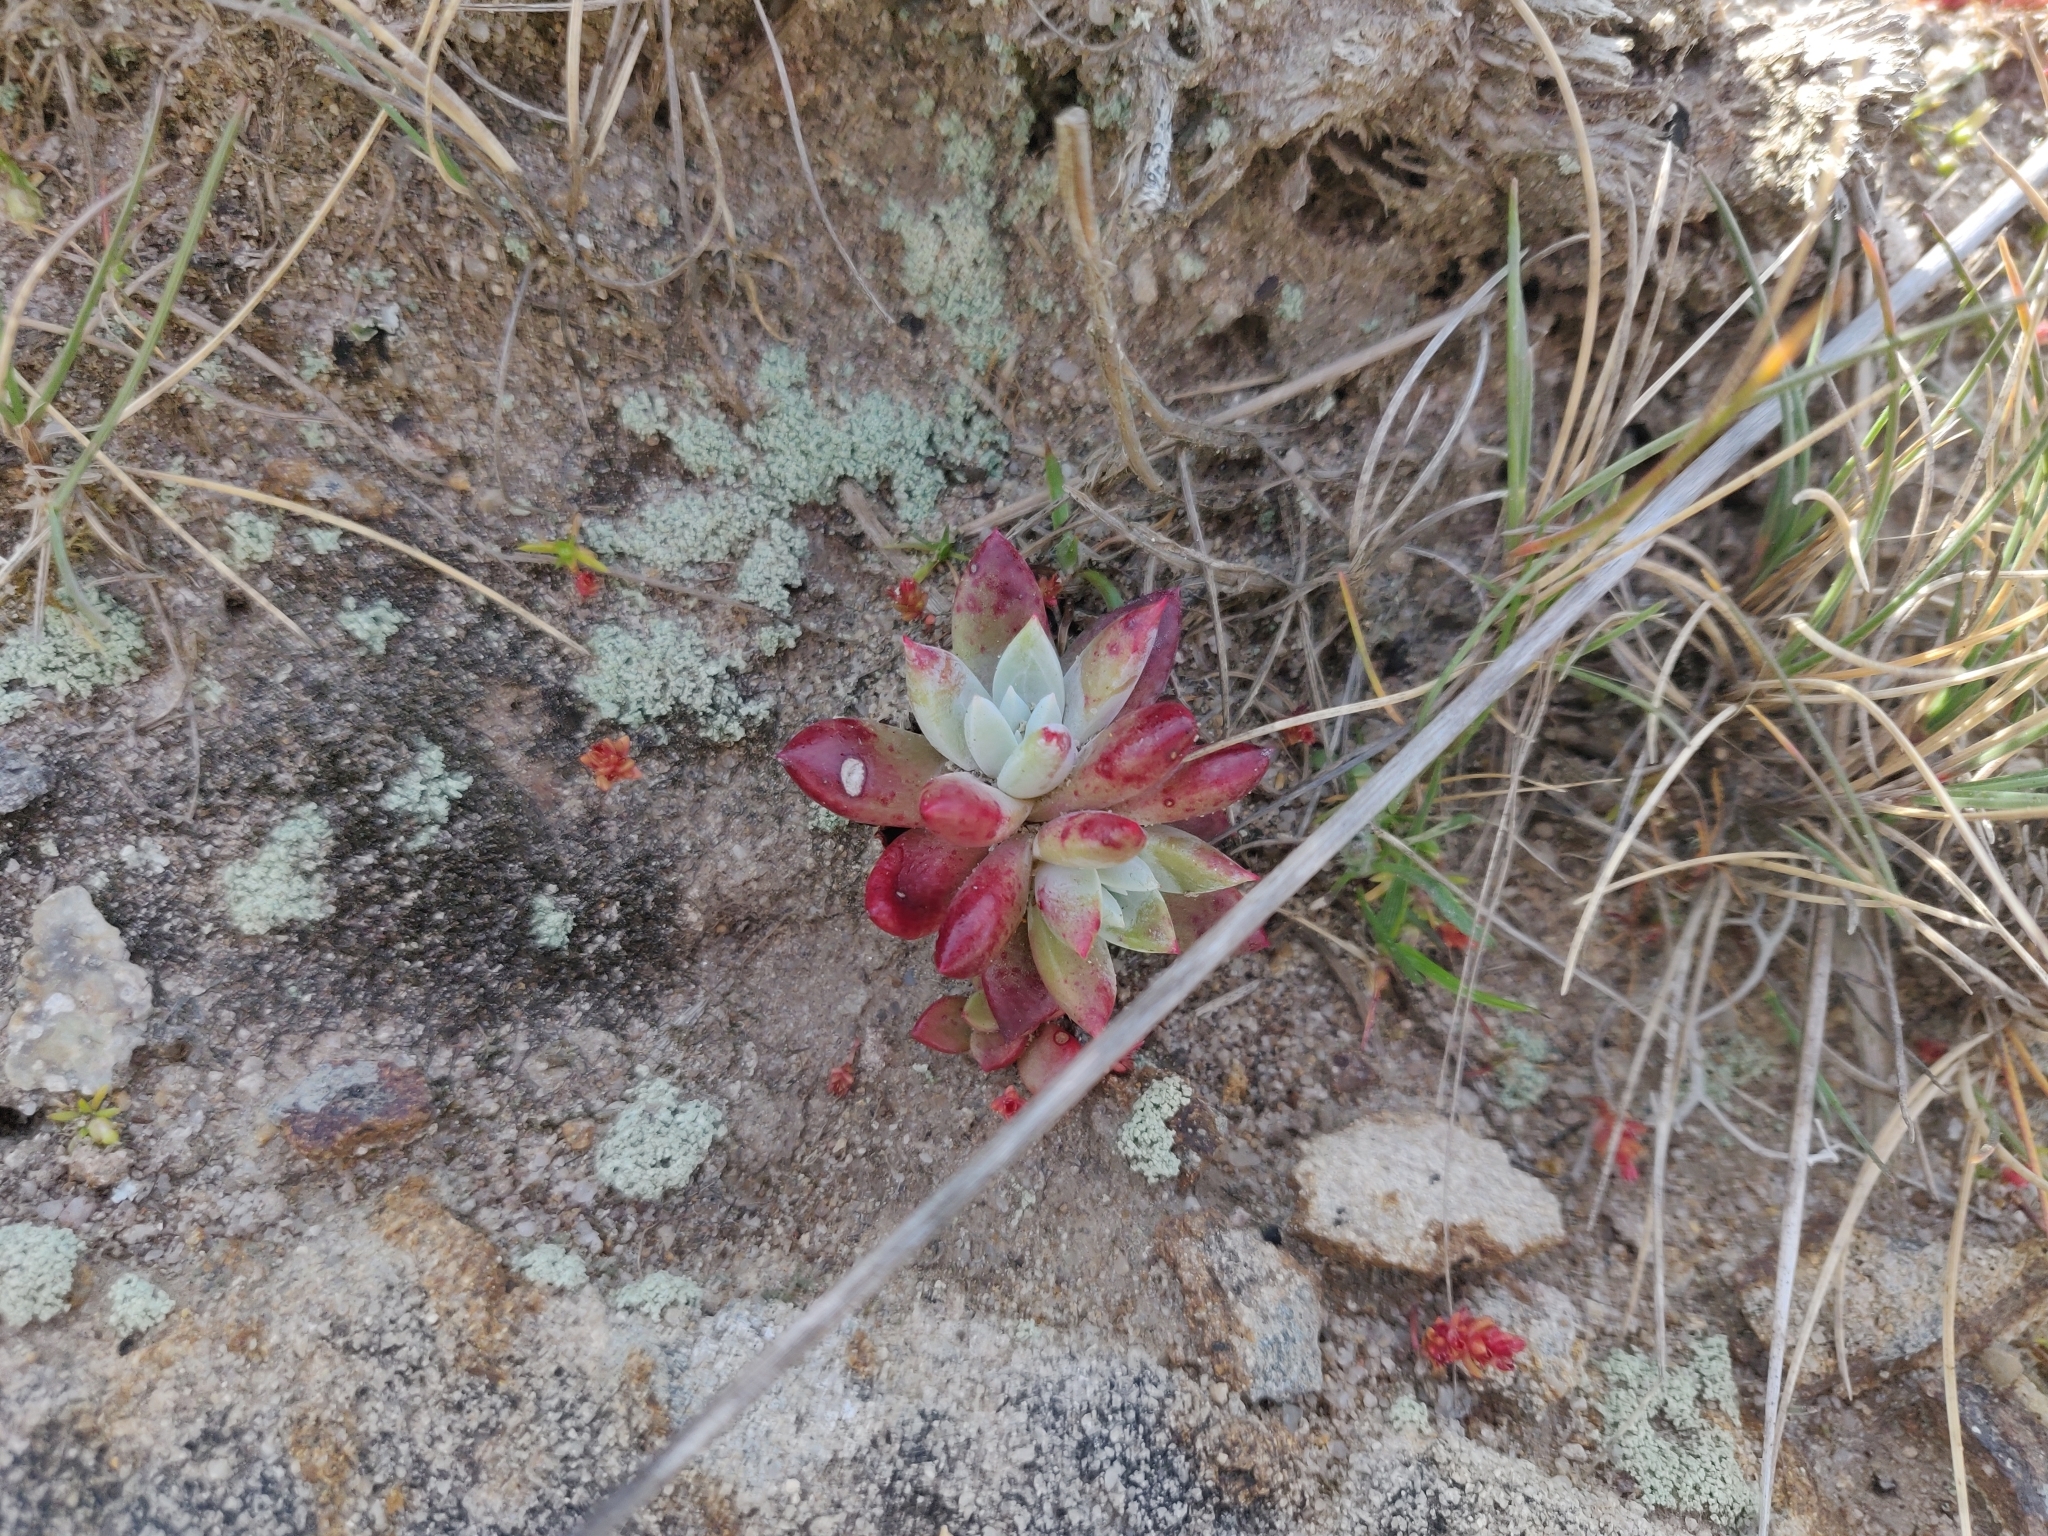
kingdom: Plantae
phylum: Tracheophyta
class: Magnoliopsida
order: Saxifragales
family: Crassulaceae
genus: Dudleya
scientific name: Dudleya farinosa
